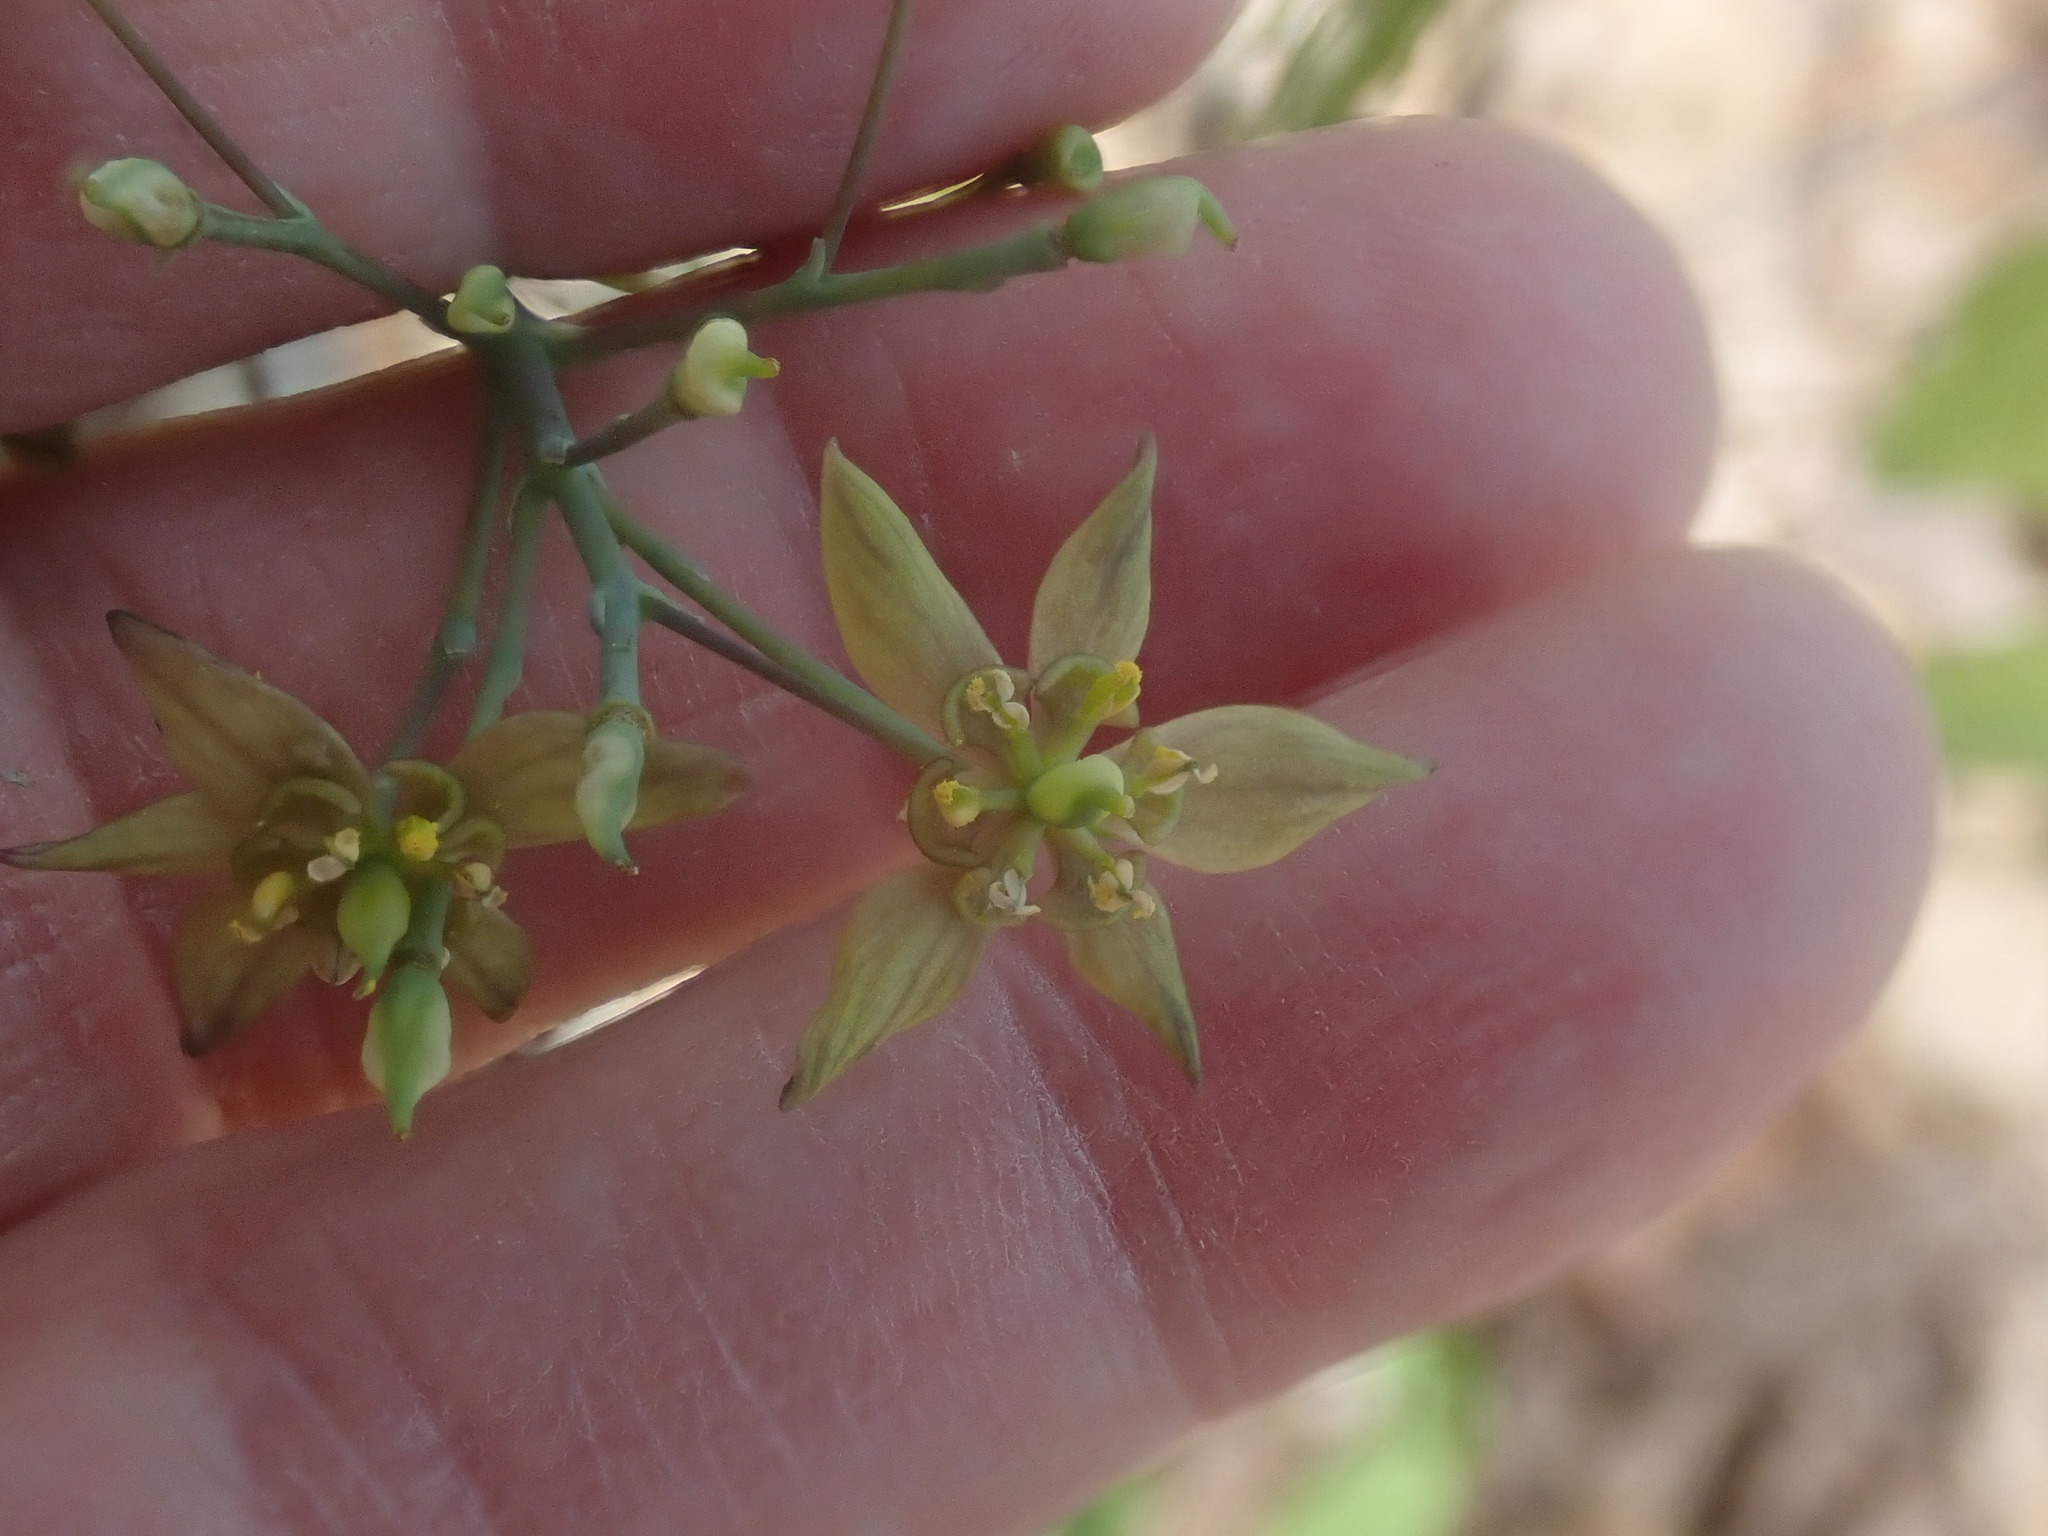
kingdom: Plantae
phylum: Tracheophyta
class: Magnoliopsida
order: Ranunculales
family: Berberidaceae
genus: Caulophyllum
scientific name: Caulophyllum thalictroides
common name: Blue cohosh
